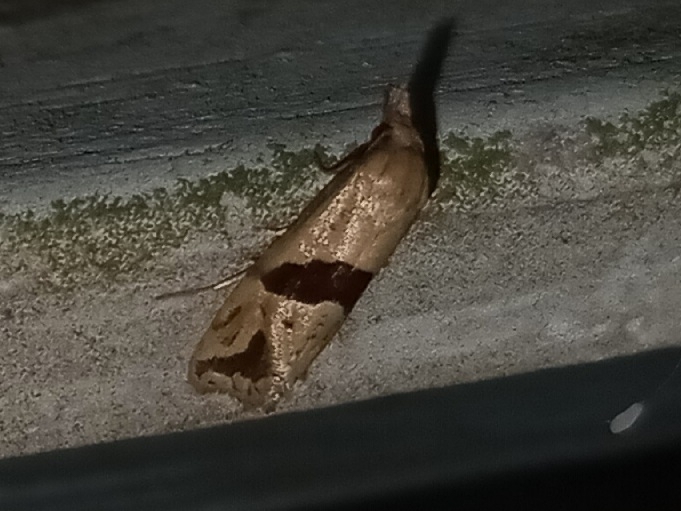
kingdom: Animalia
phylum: Arthropoda
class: Insecta
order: Lepidoptera
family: Tortricidae
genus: Eugnosta
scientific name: Eugnosta sartana
